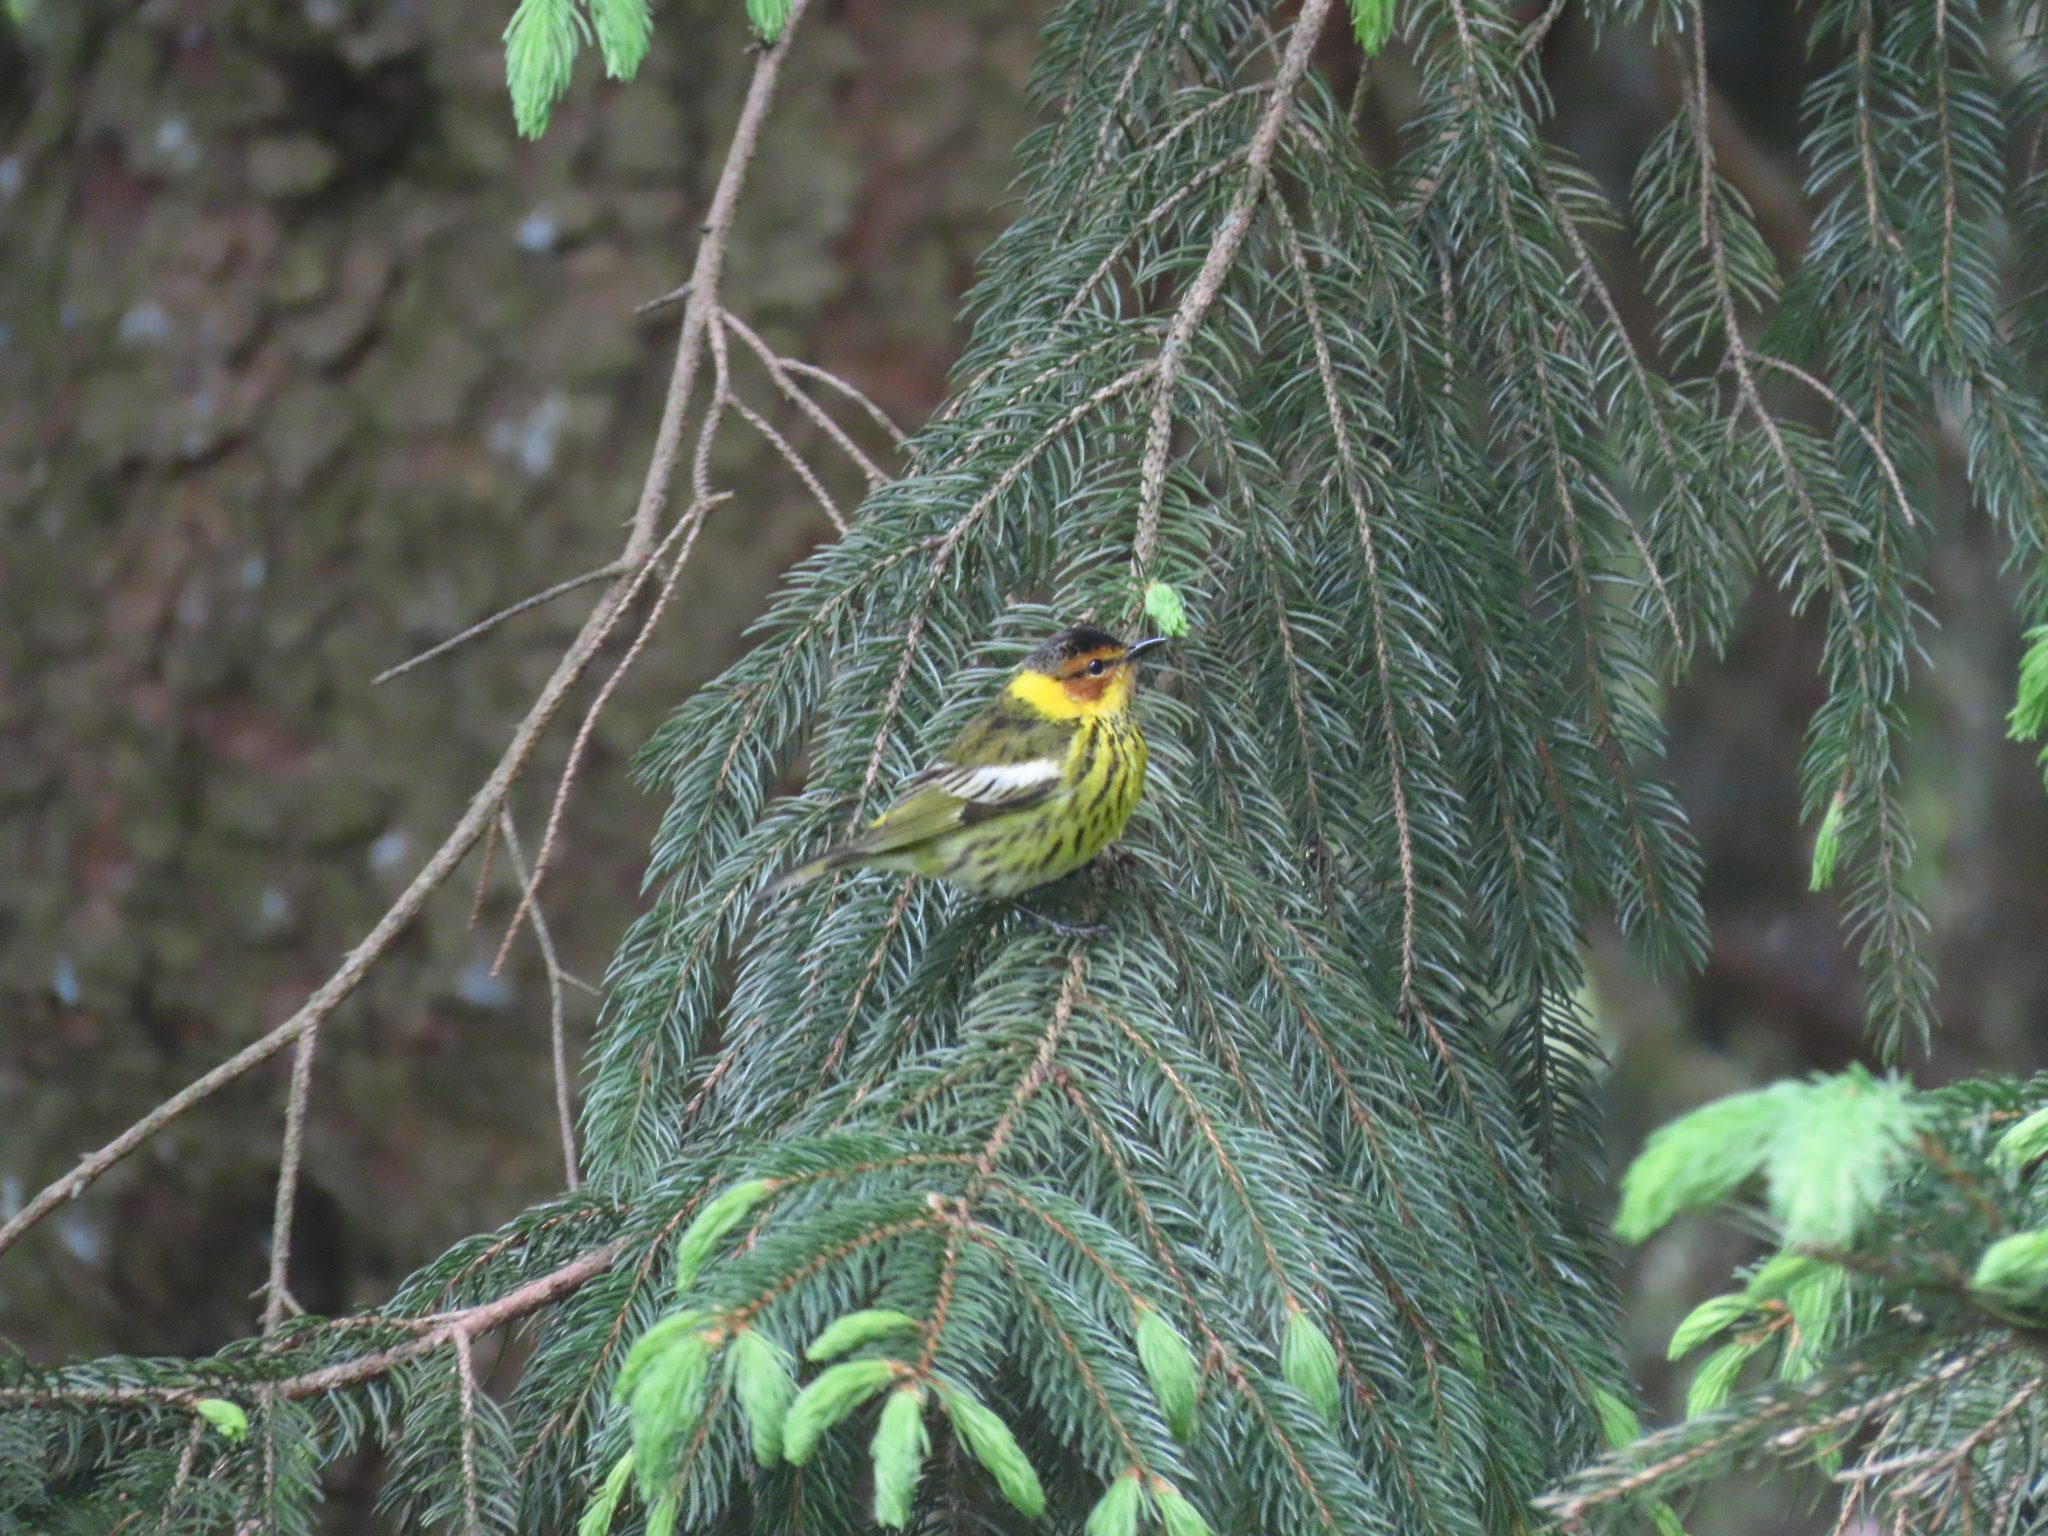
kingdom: Animalia
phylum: Chordata
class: Aves
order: Passeriformes
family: Parulidae
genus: Setophaga
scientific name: Setophaga tigrina
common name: Cape may warbler
